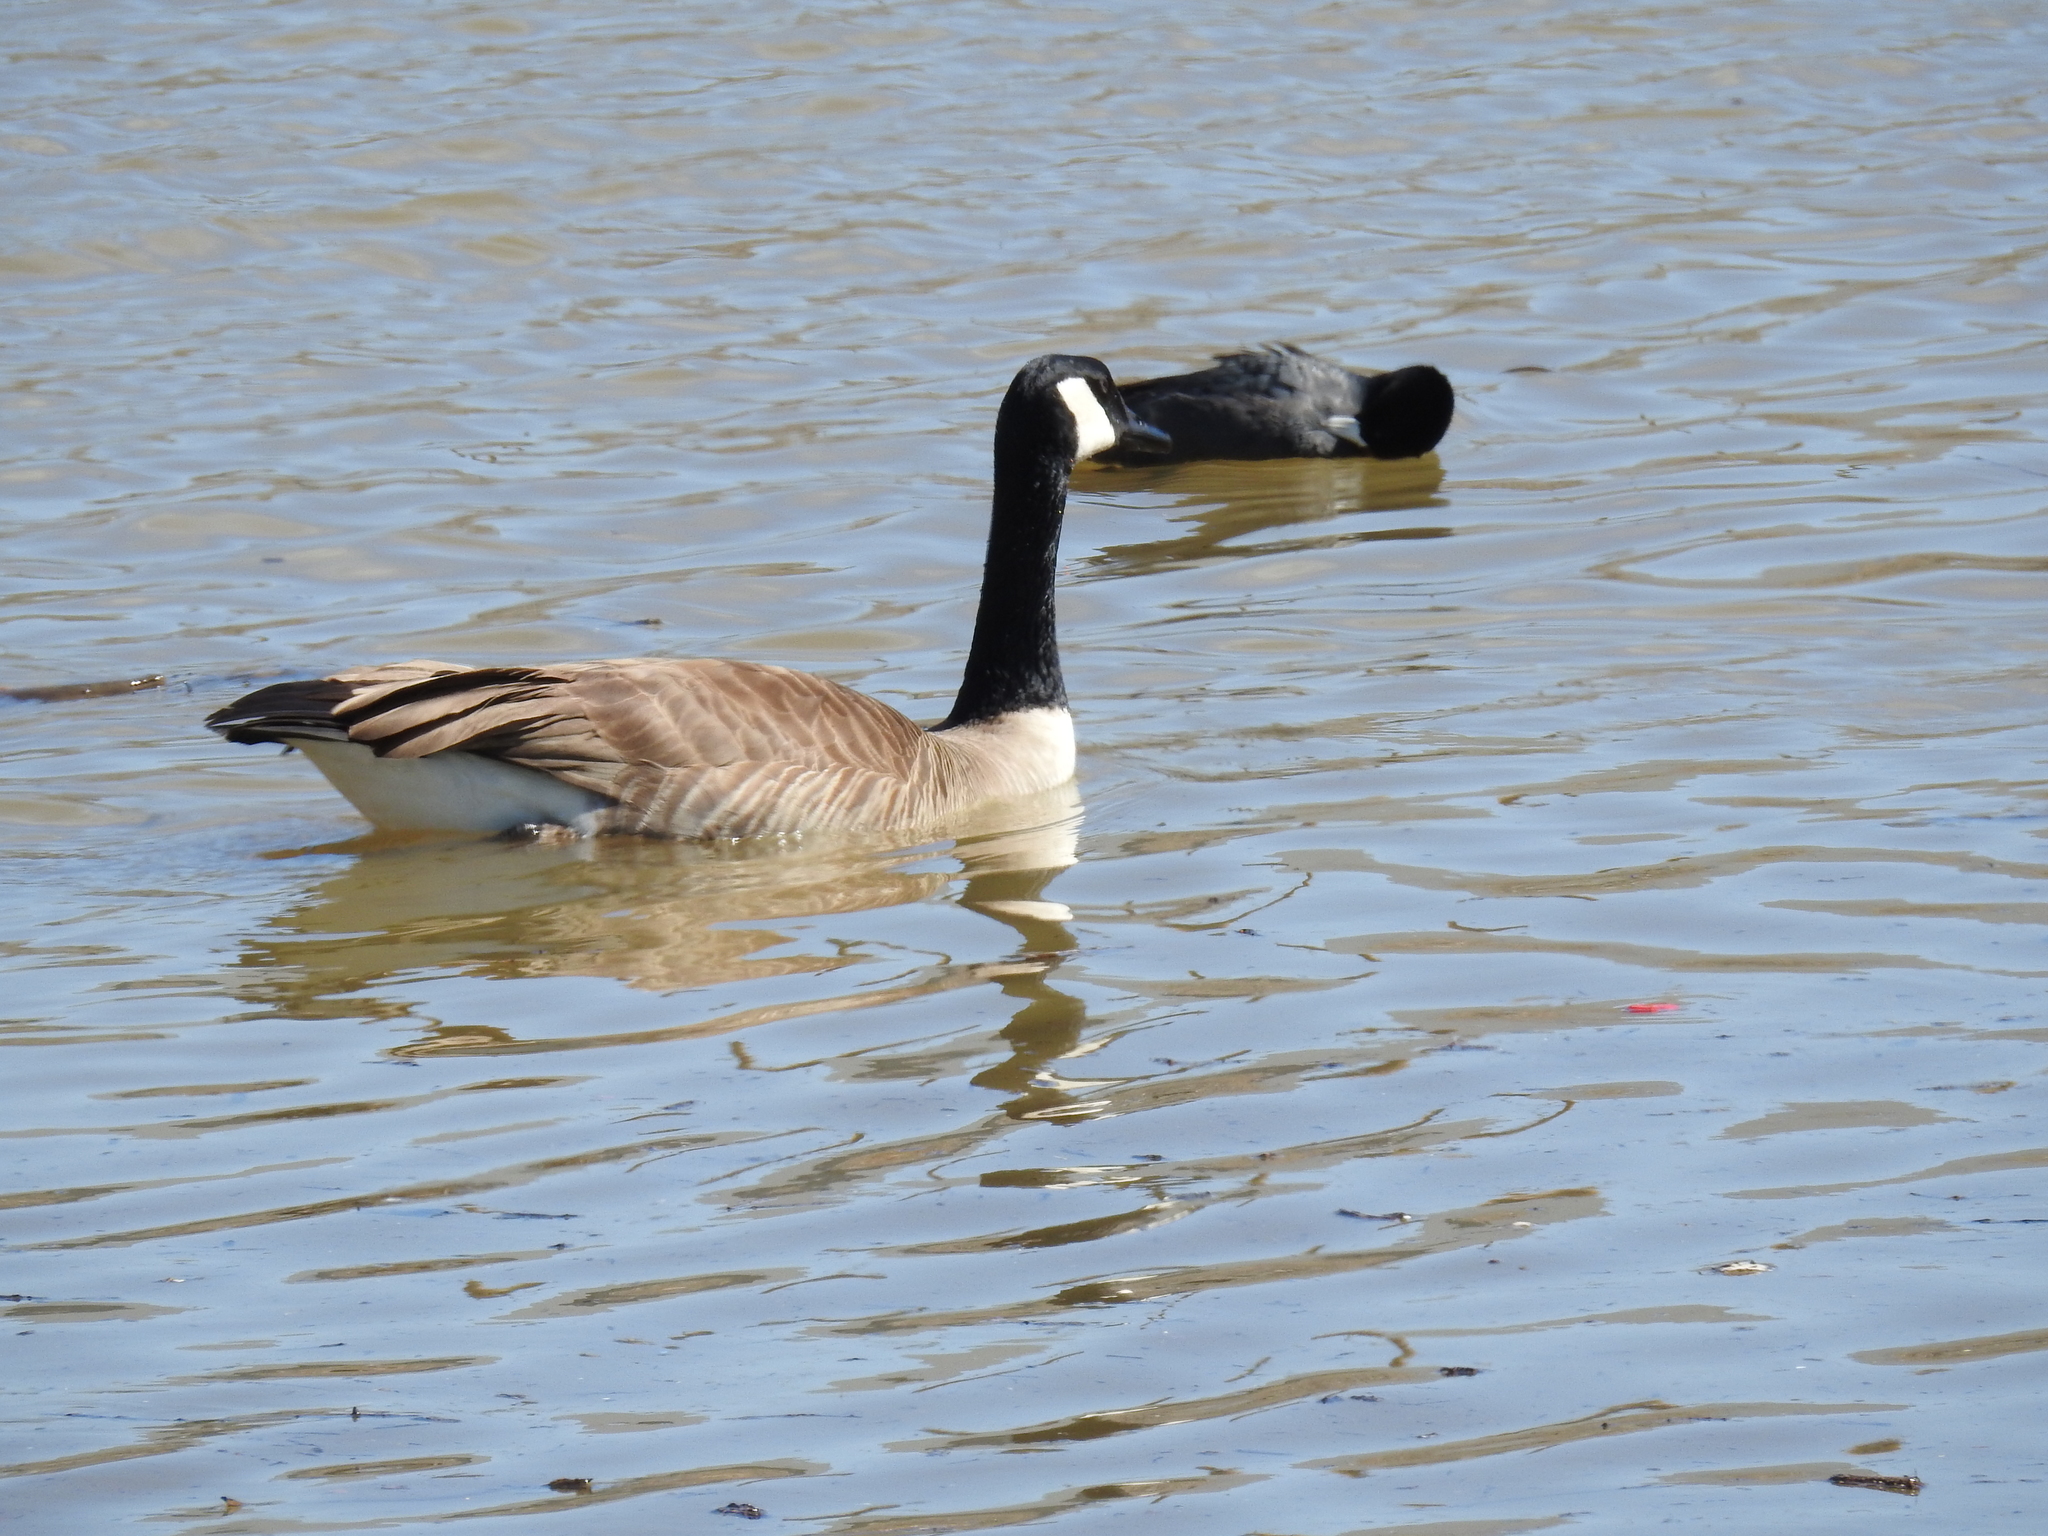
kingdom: Animalia
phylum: Chordata
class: Aves
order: Anseriformes
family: Anatidae
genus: Branta
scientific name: Branta canadensis
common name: Canada goose
